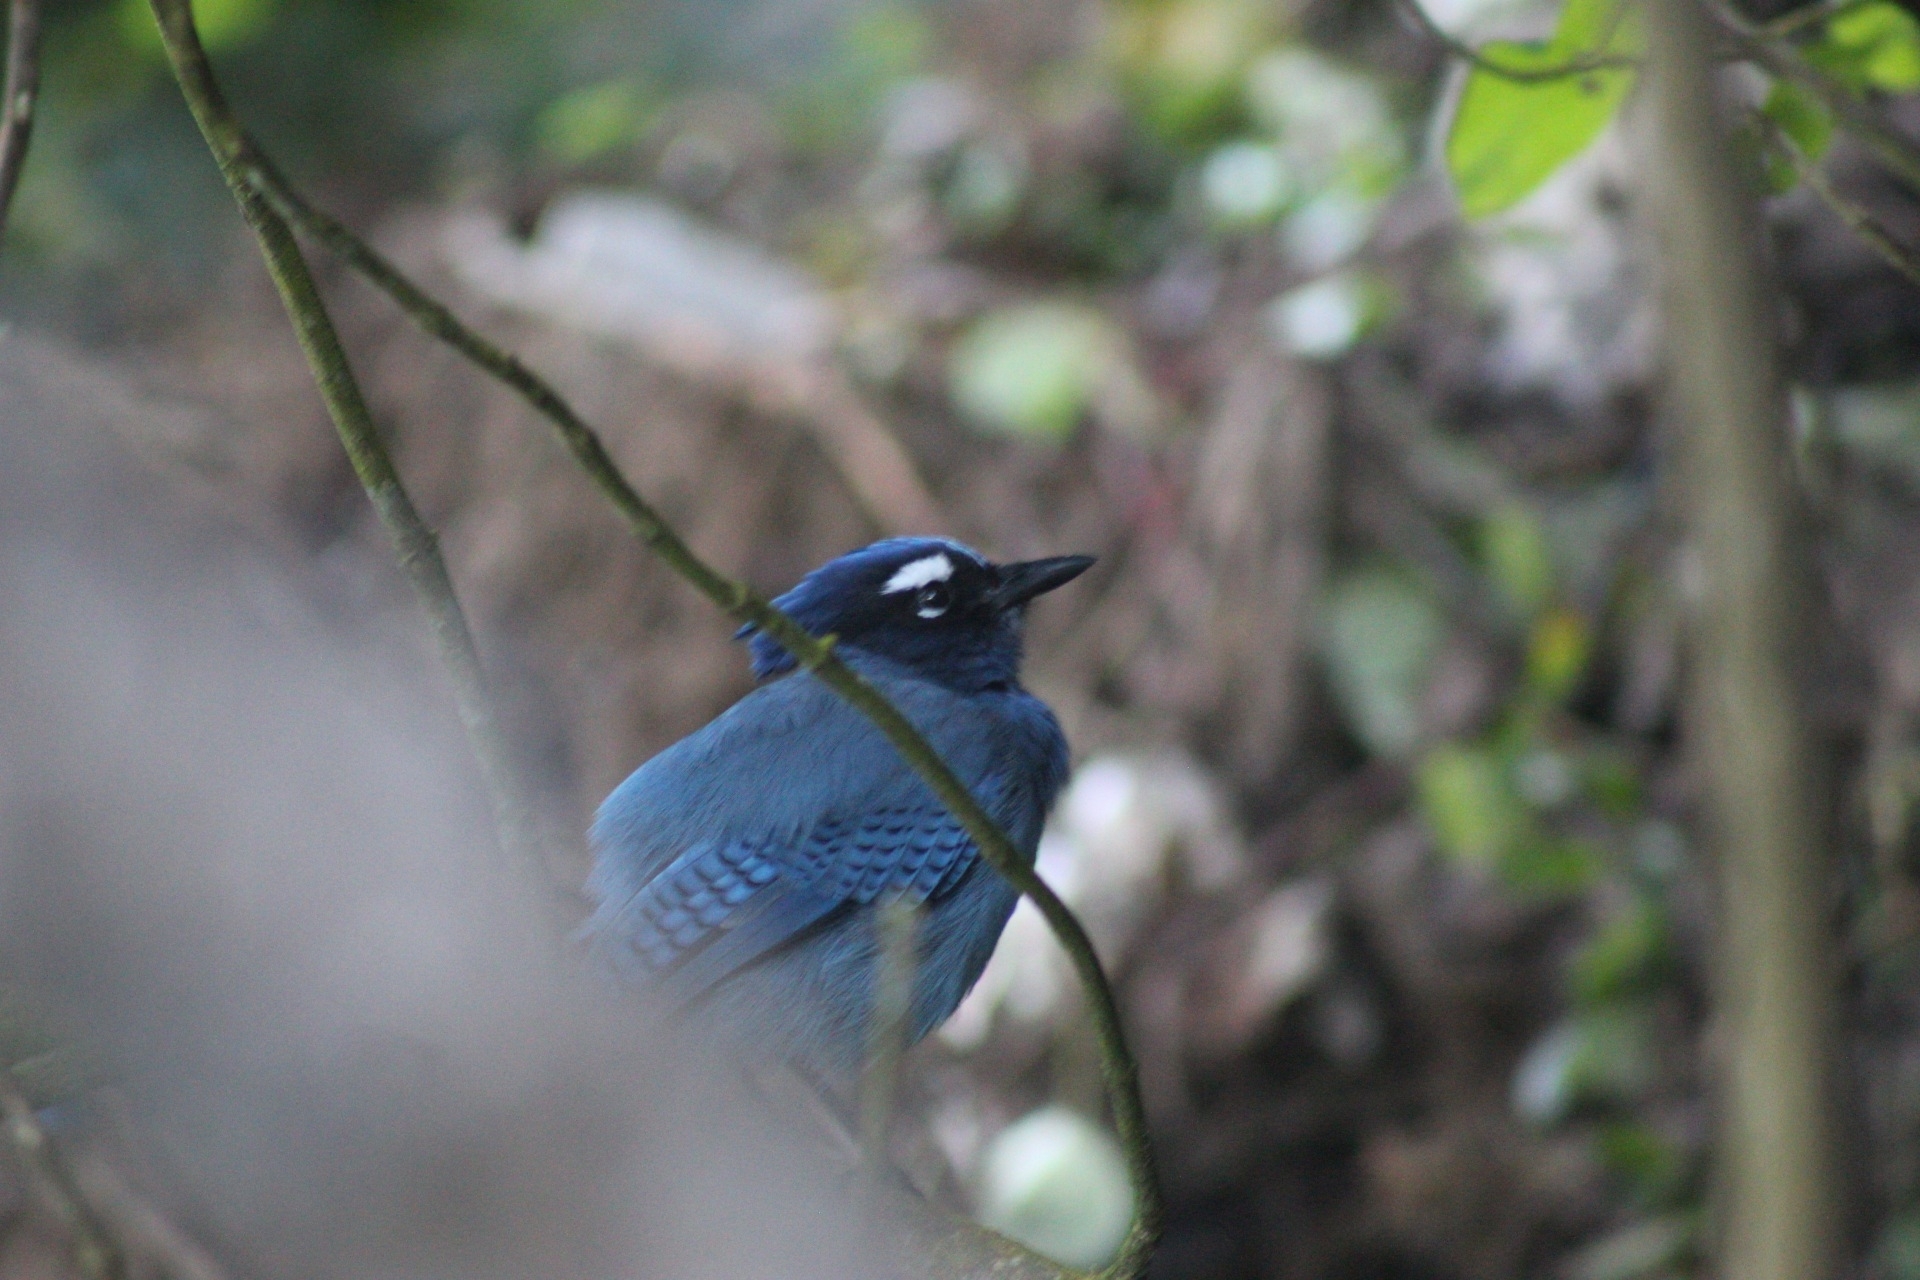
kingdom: Animalia
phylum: Chordata
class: Aves
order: Passeriformes
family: Corvidae
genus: Cyanocitta
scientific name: Cyanocitta stelleri
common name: Steller's jay
